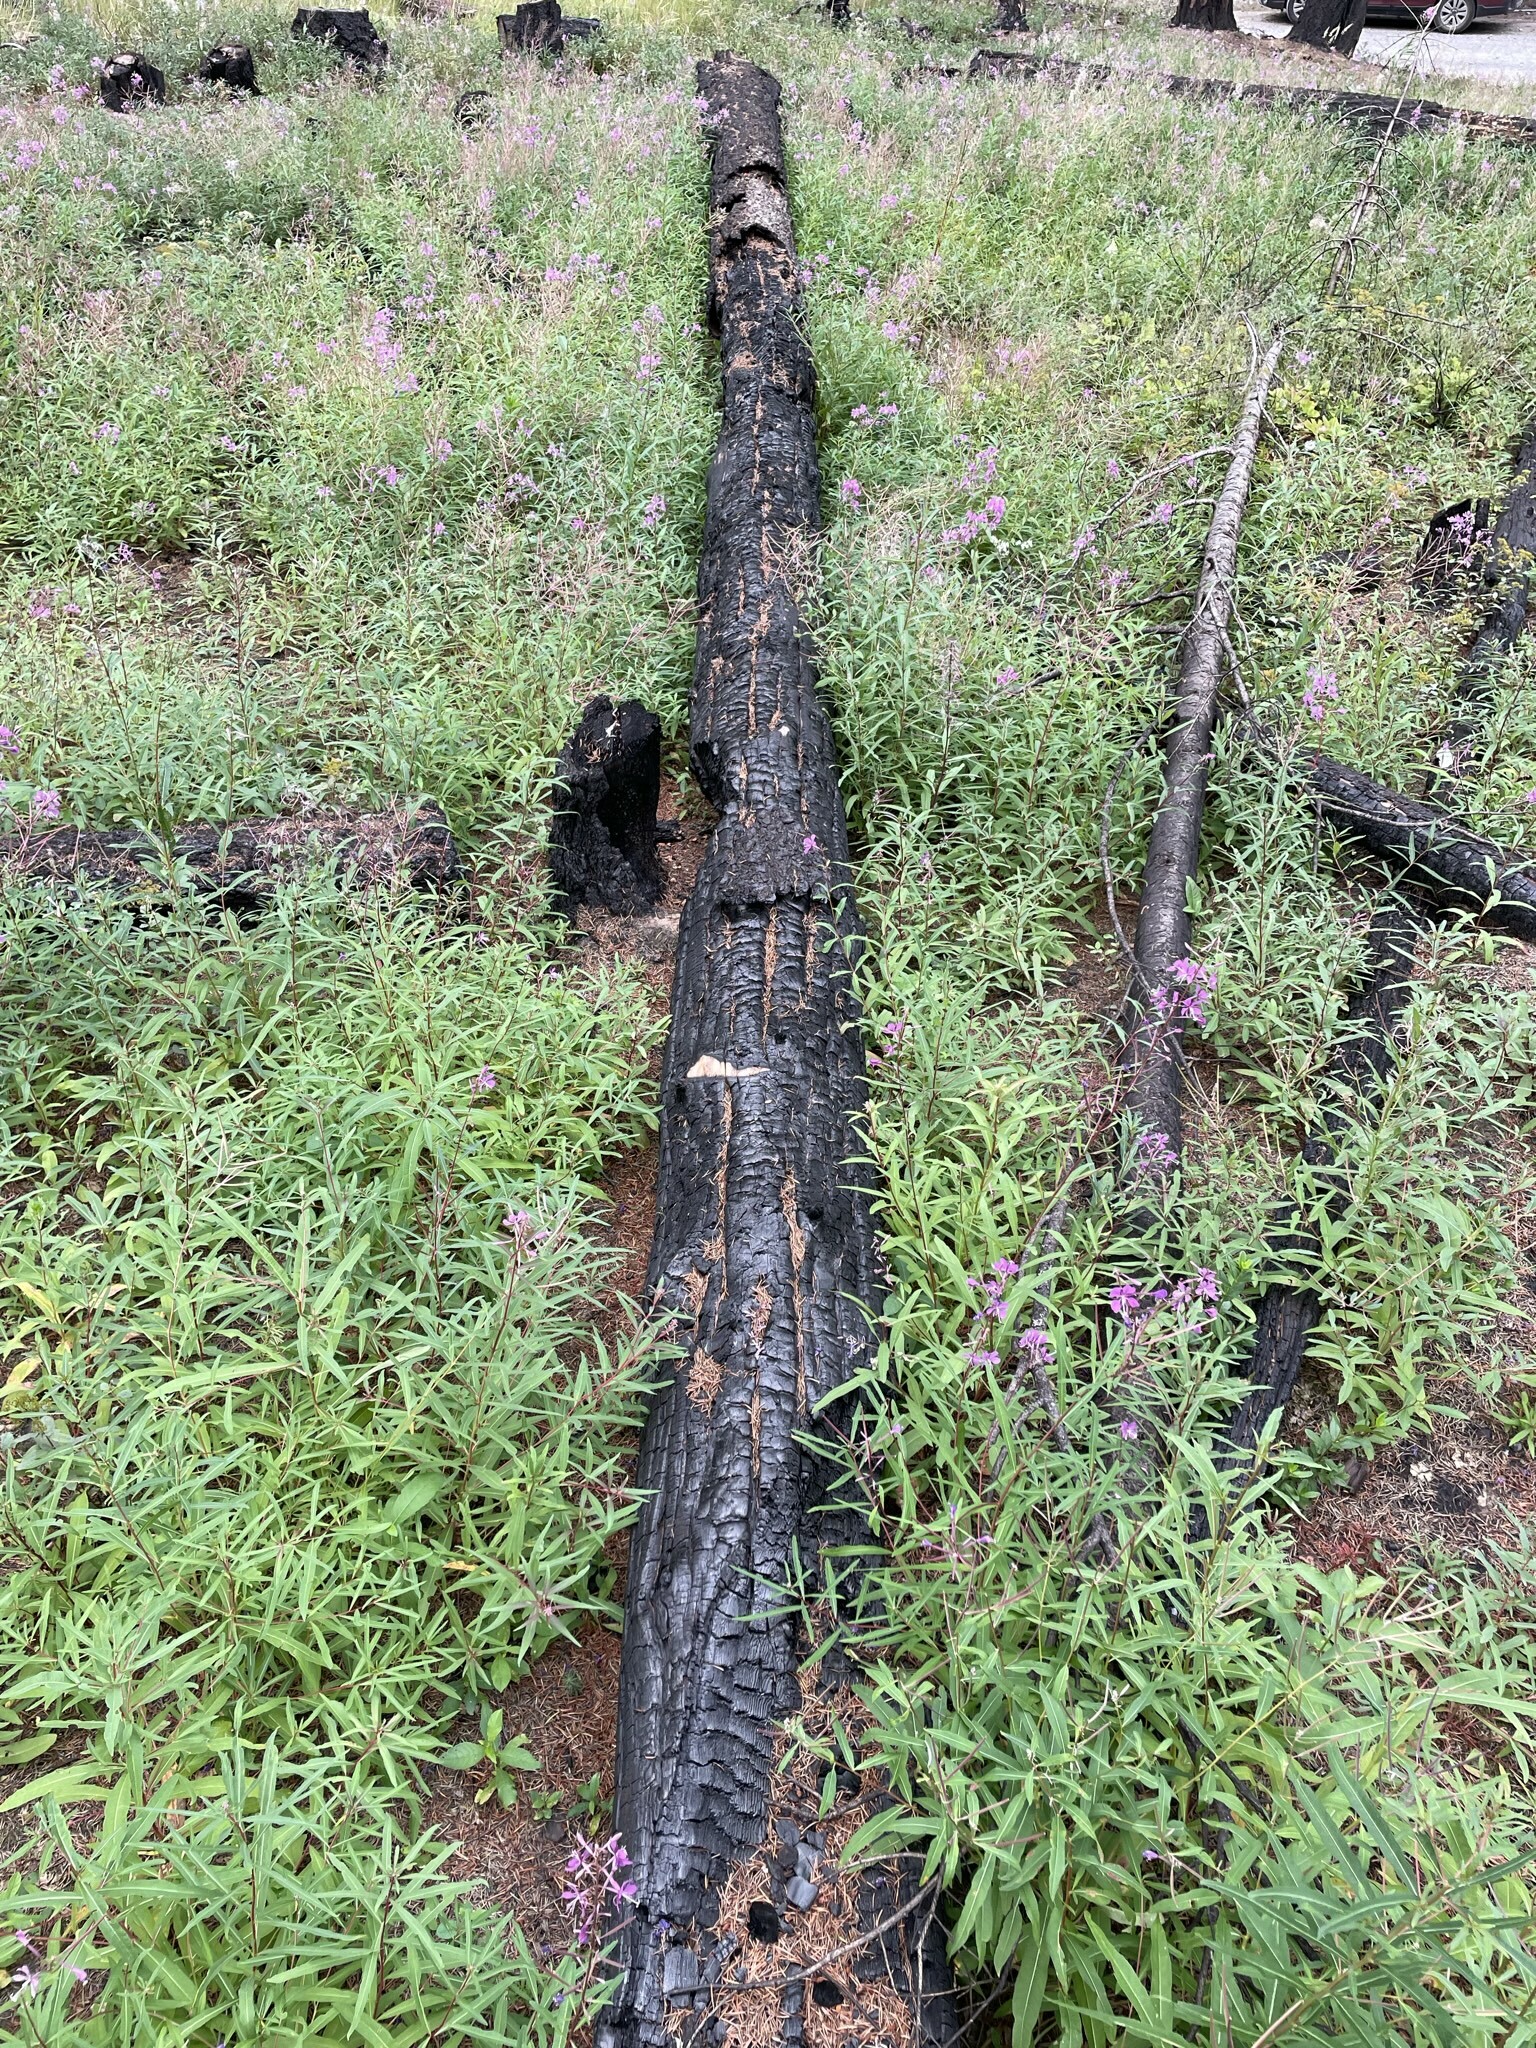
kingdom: Plantae
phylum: Tracheophyta
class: Magnoliopsida
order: Myrtales
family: Onagraceae
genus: Chamaenerion
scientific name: Chamaenerion angustifolium
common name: Fireweed
